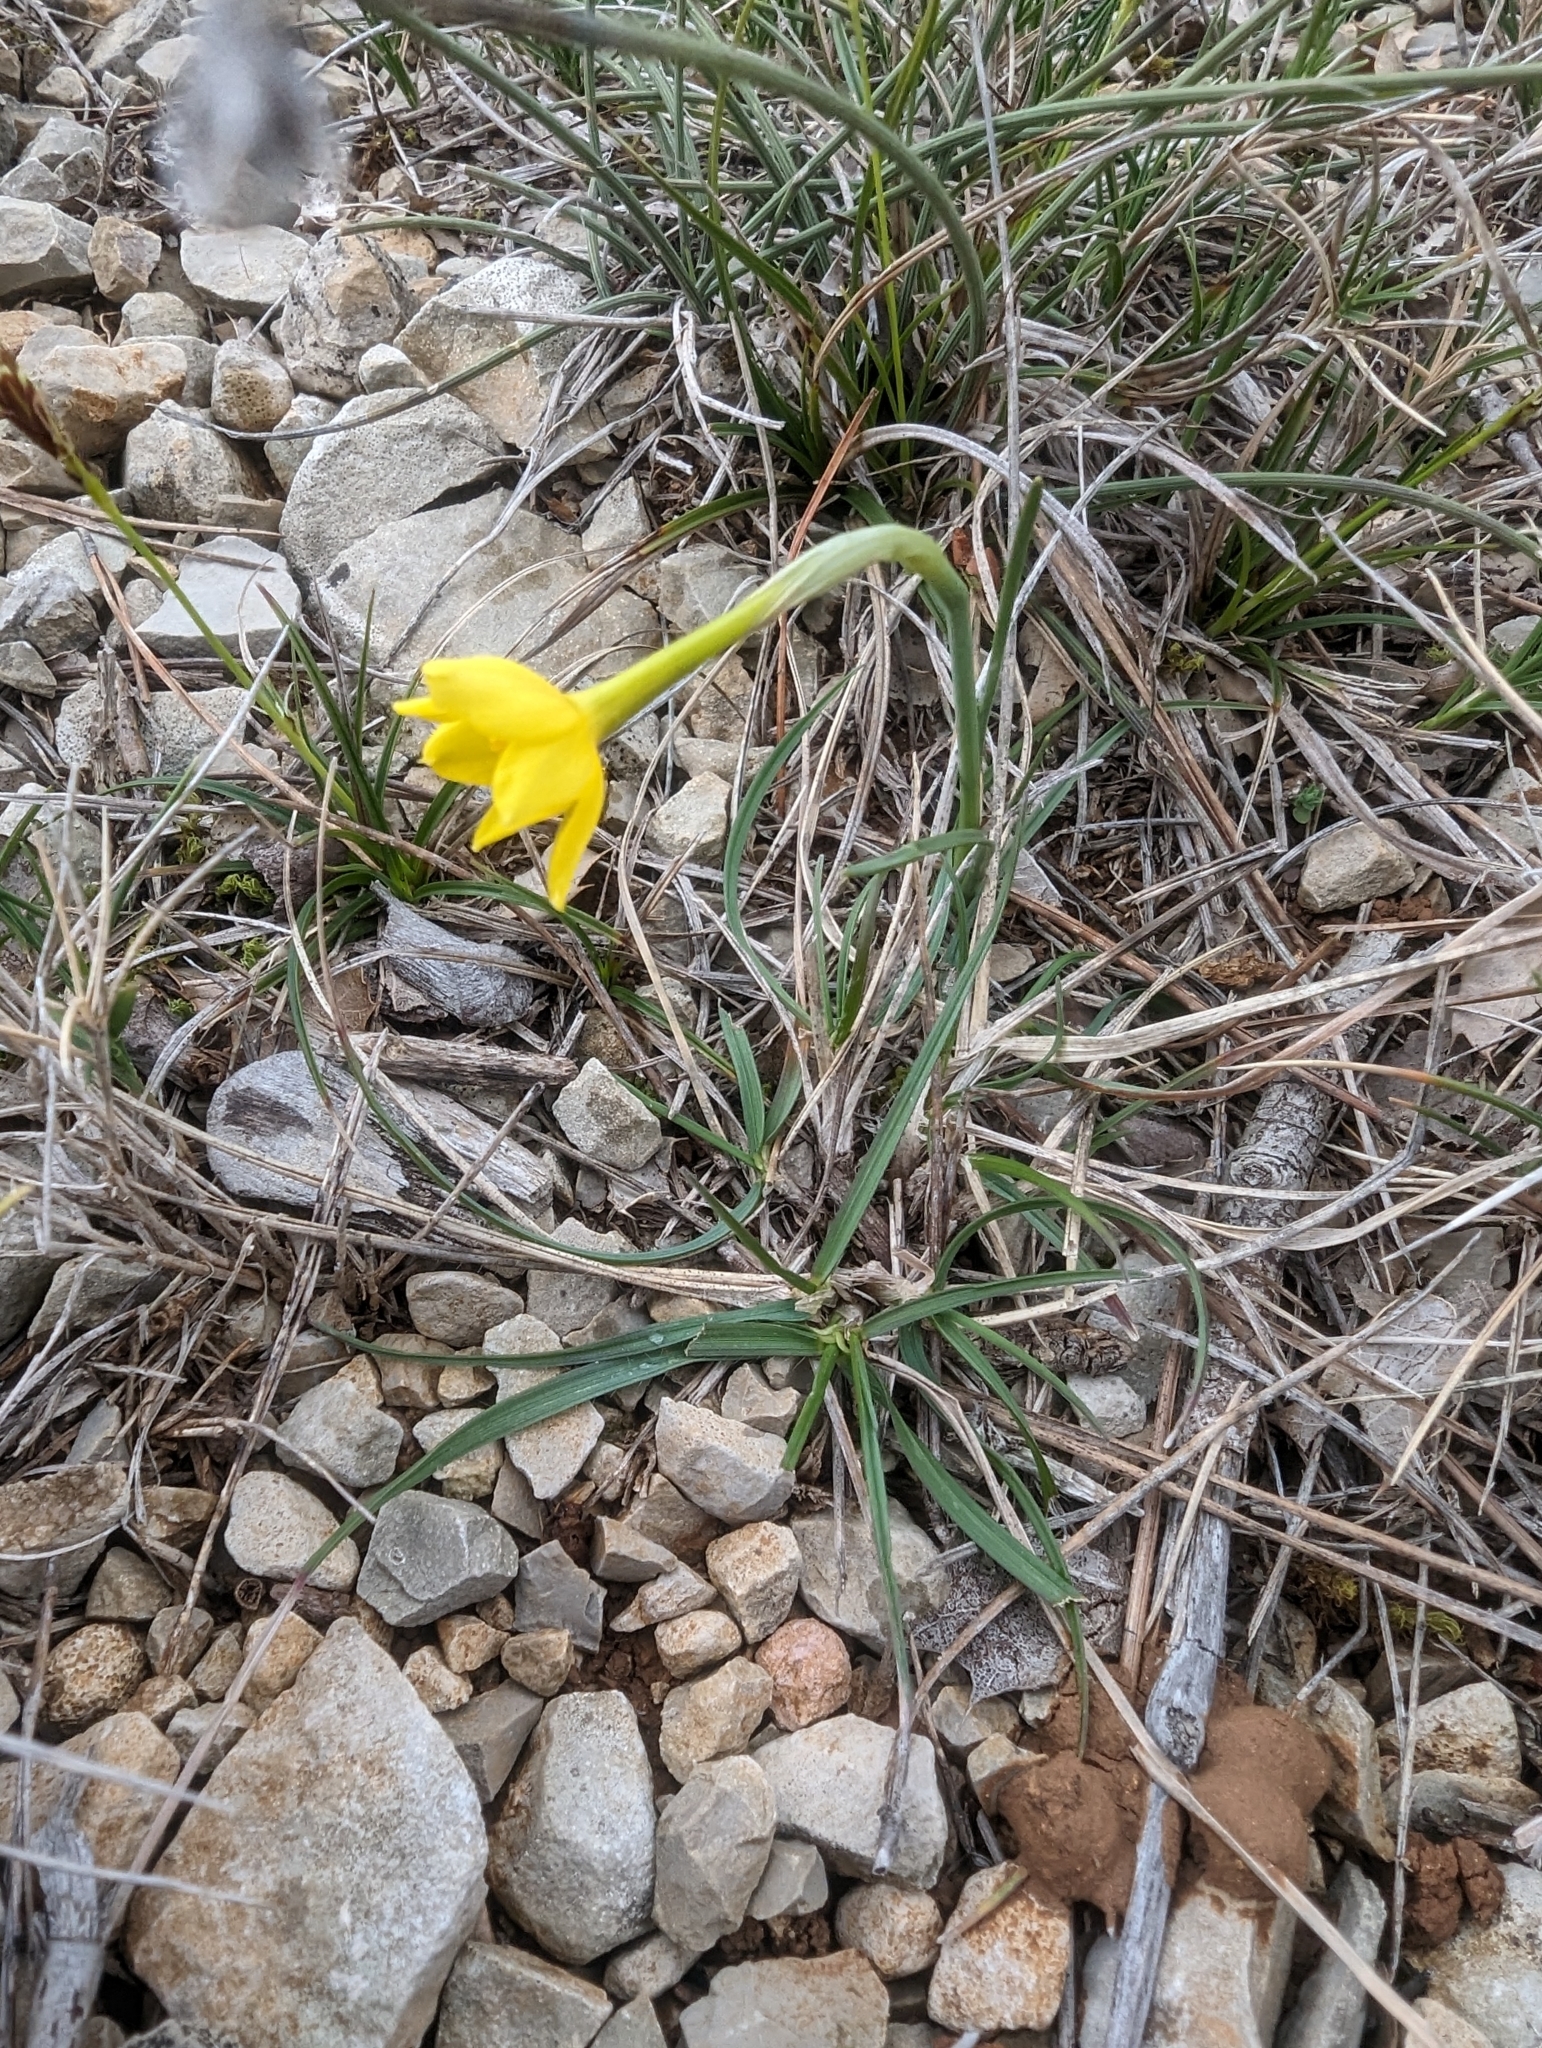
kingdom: Plantae
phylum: Tracheophyta
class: Liliopsida
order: Asparagales
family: Amaryllidaceae
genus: Narcissus
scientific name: Narcissus assoanus
